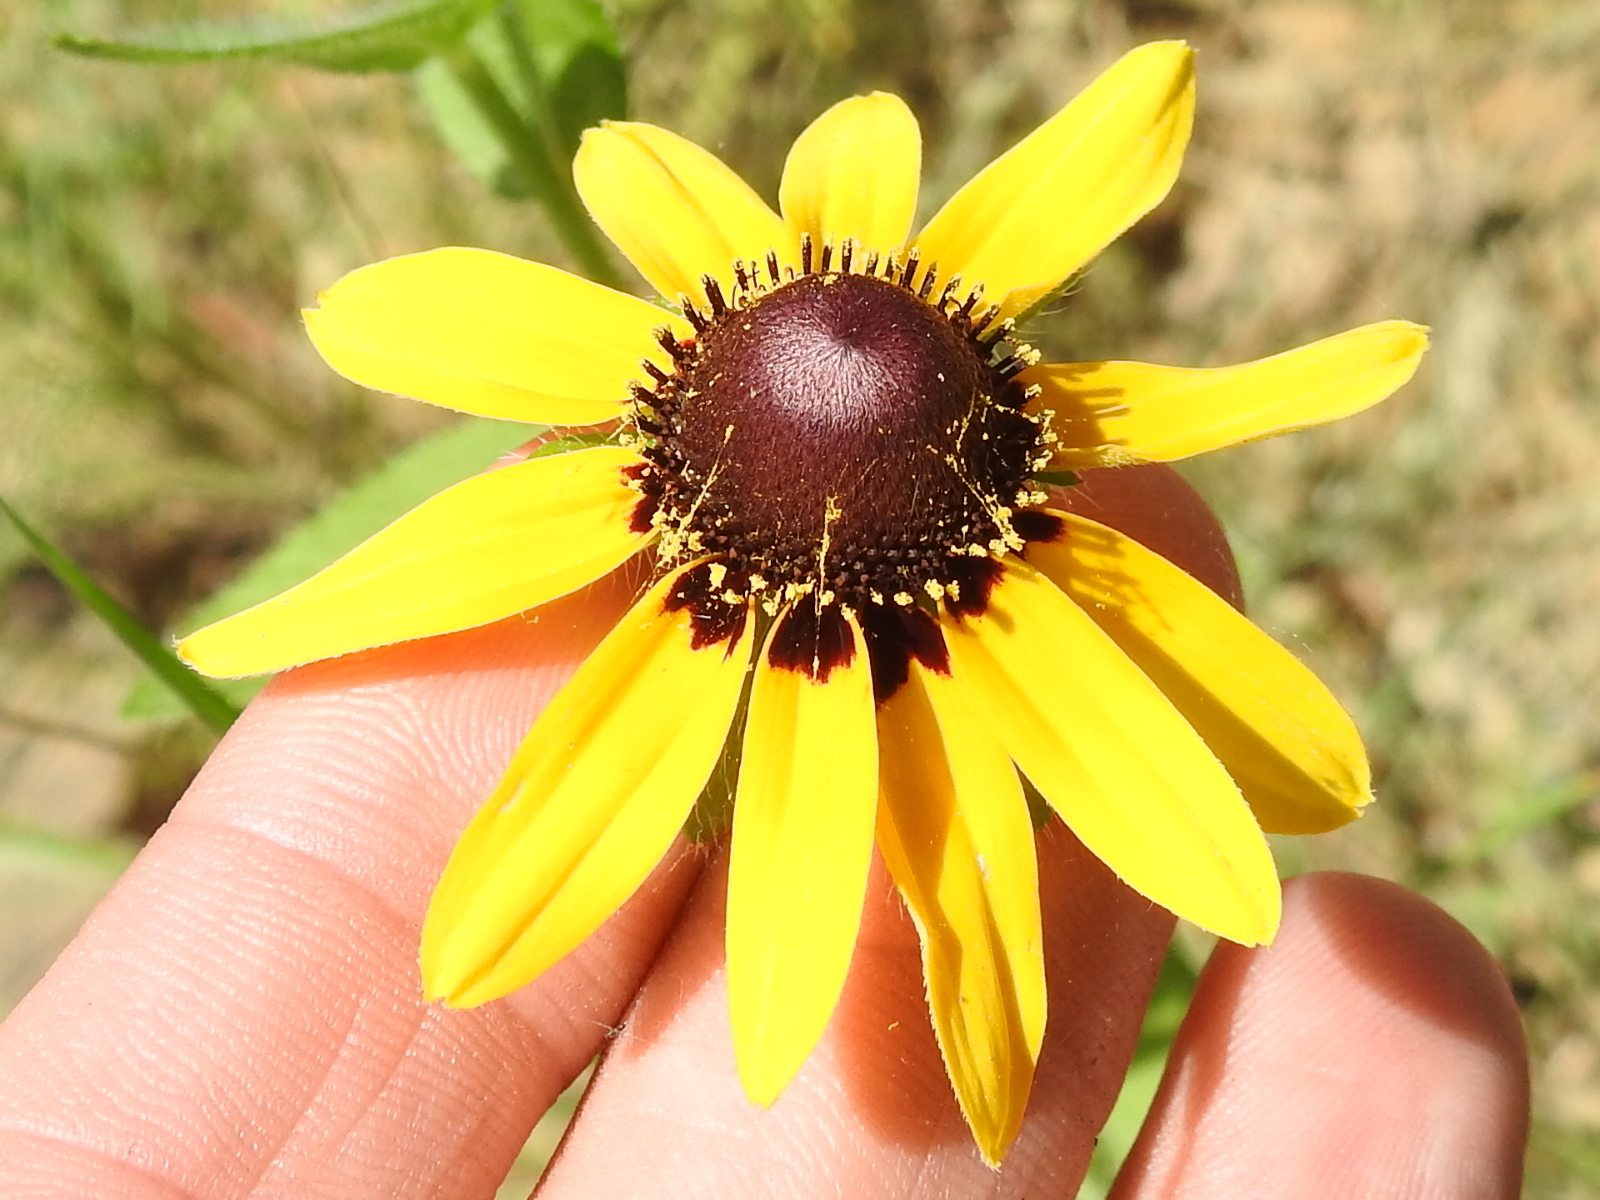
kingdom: Plantae
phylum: Tracheophyta
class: Magnoliopsida
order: Asterales
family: Asteraceae
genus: Rudbeckia
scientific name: Rudbeckia hirta
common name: Black-eyed-susan
